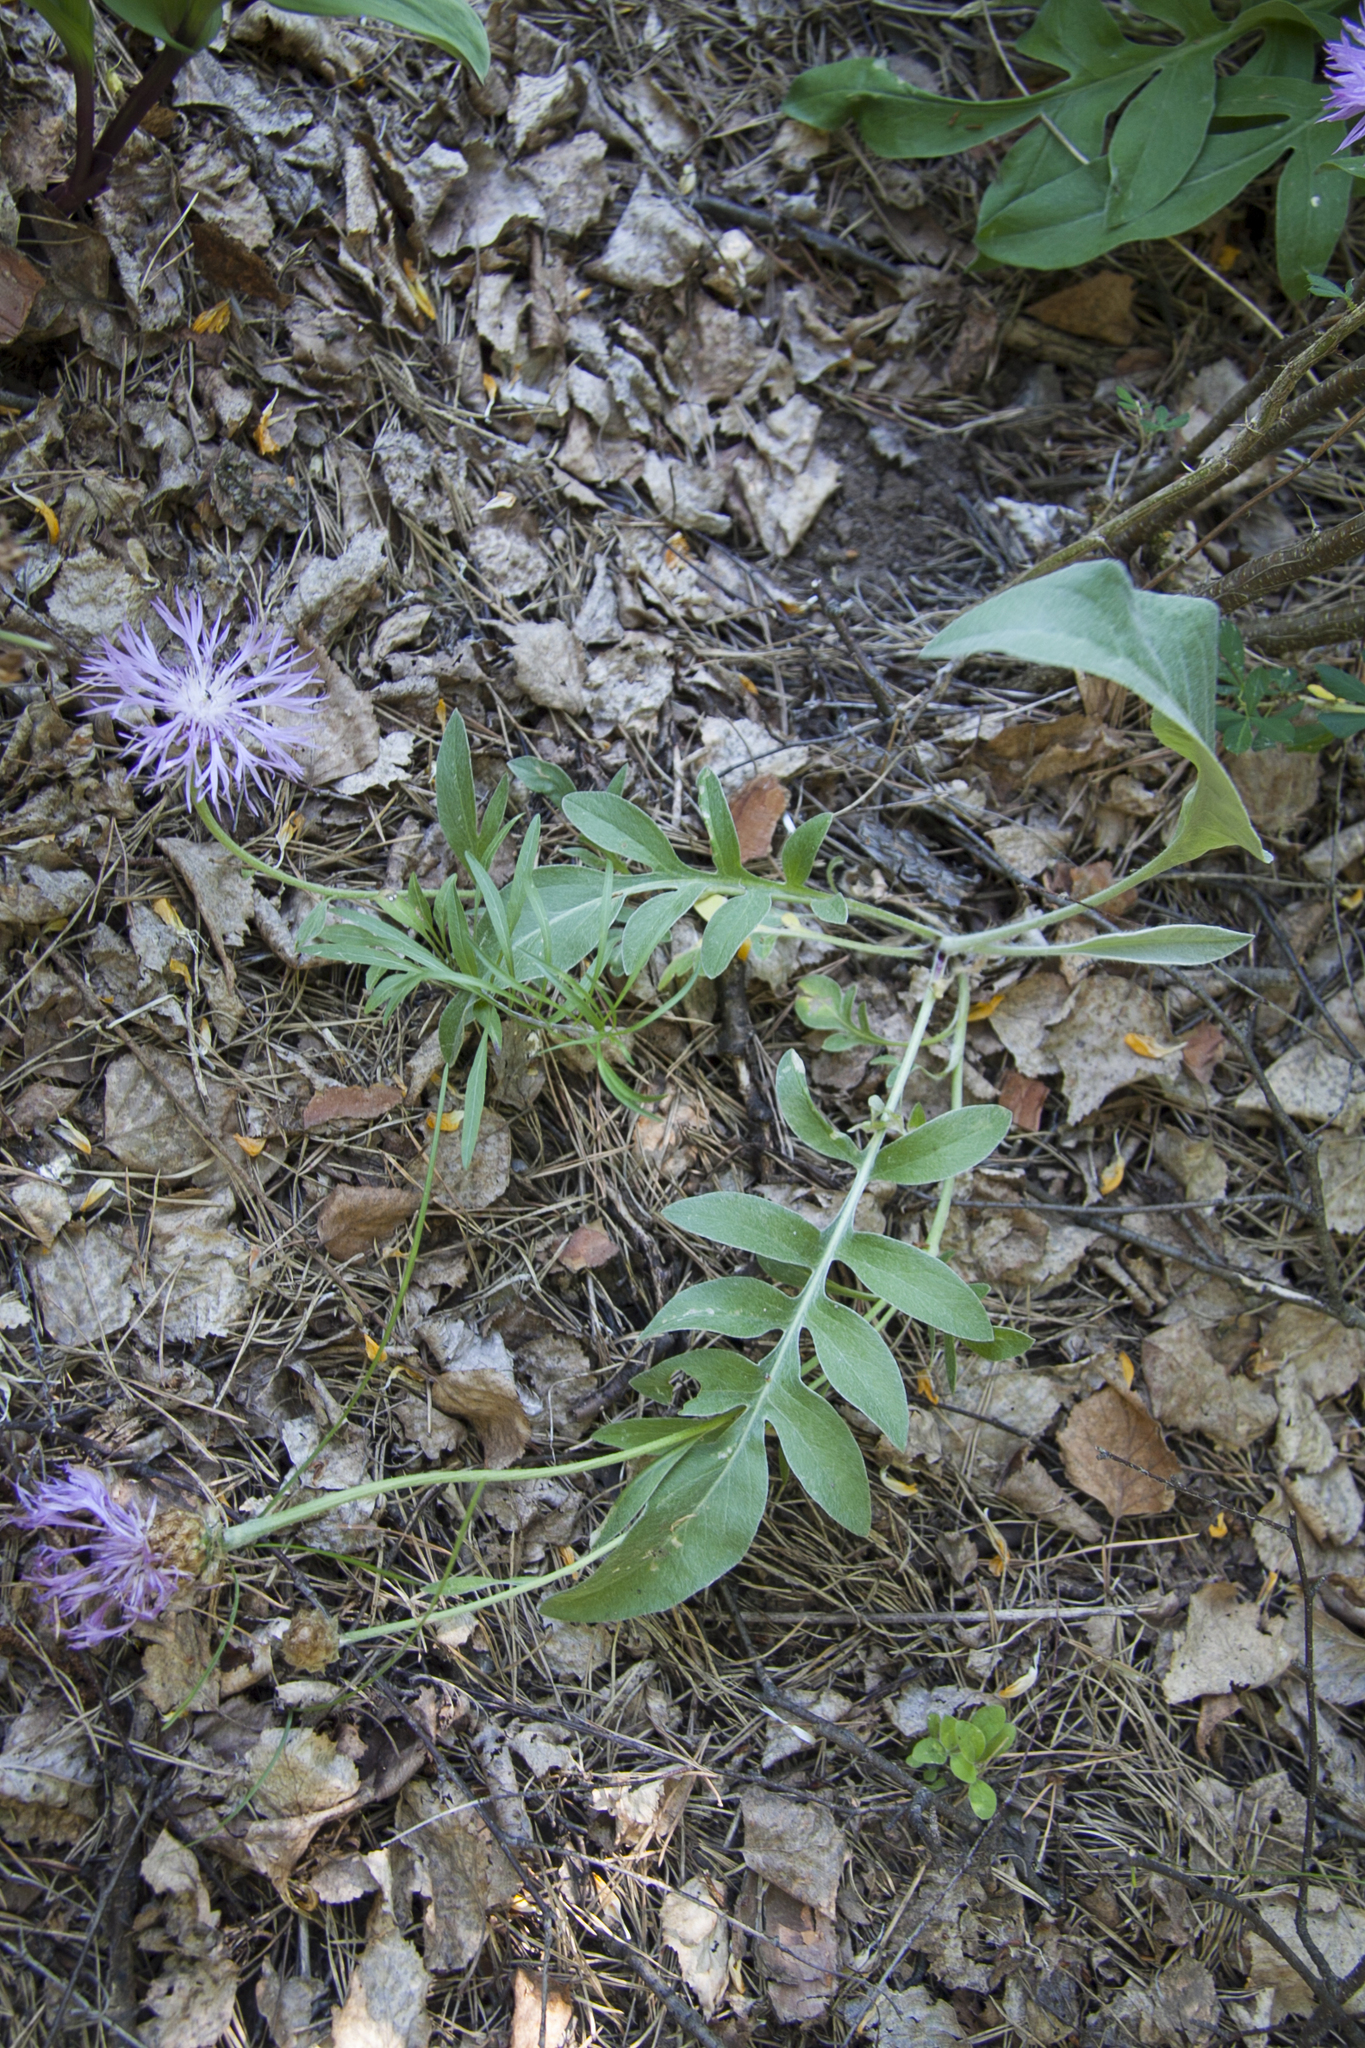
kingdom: Plantae
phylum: Tracheophyta
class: Magnoliopsida
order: Asterales
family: Asteraceae
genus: Psephellus
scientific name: Psephellus sibiricus
